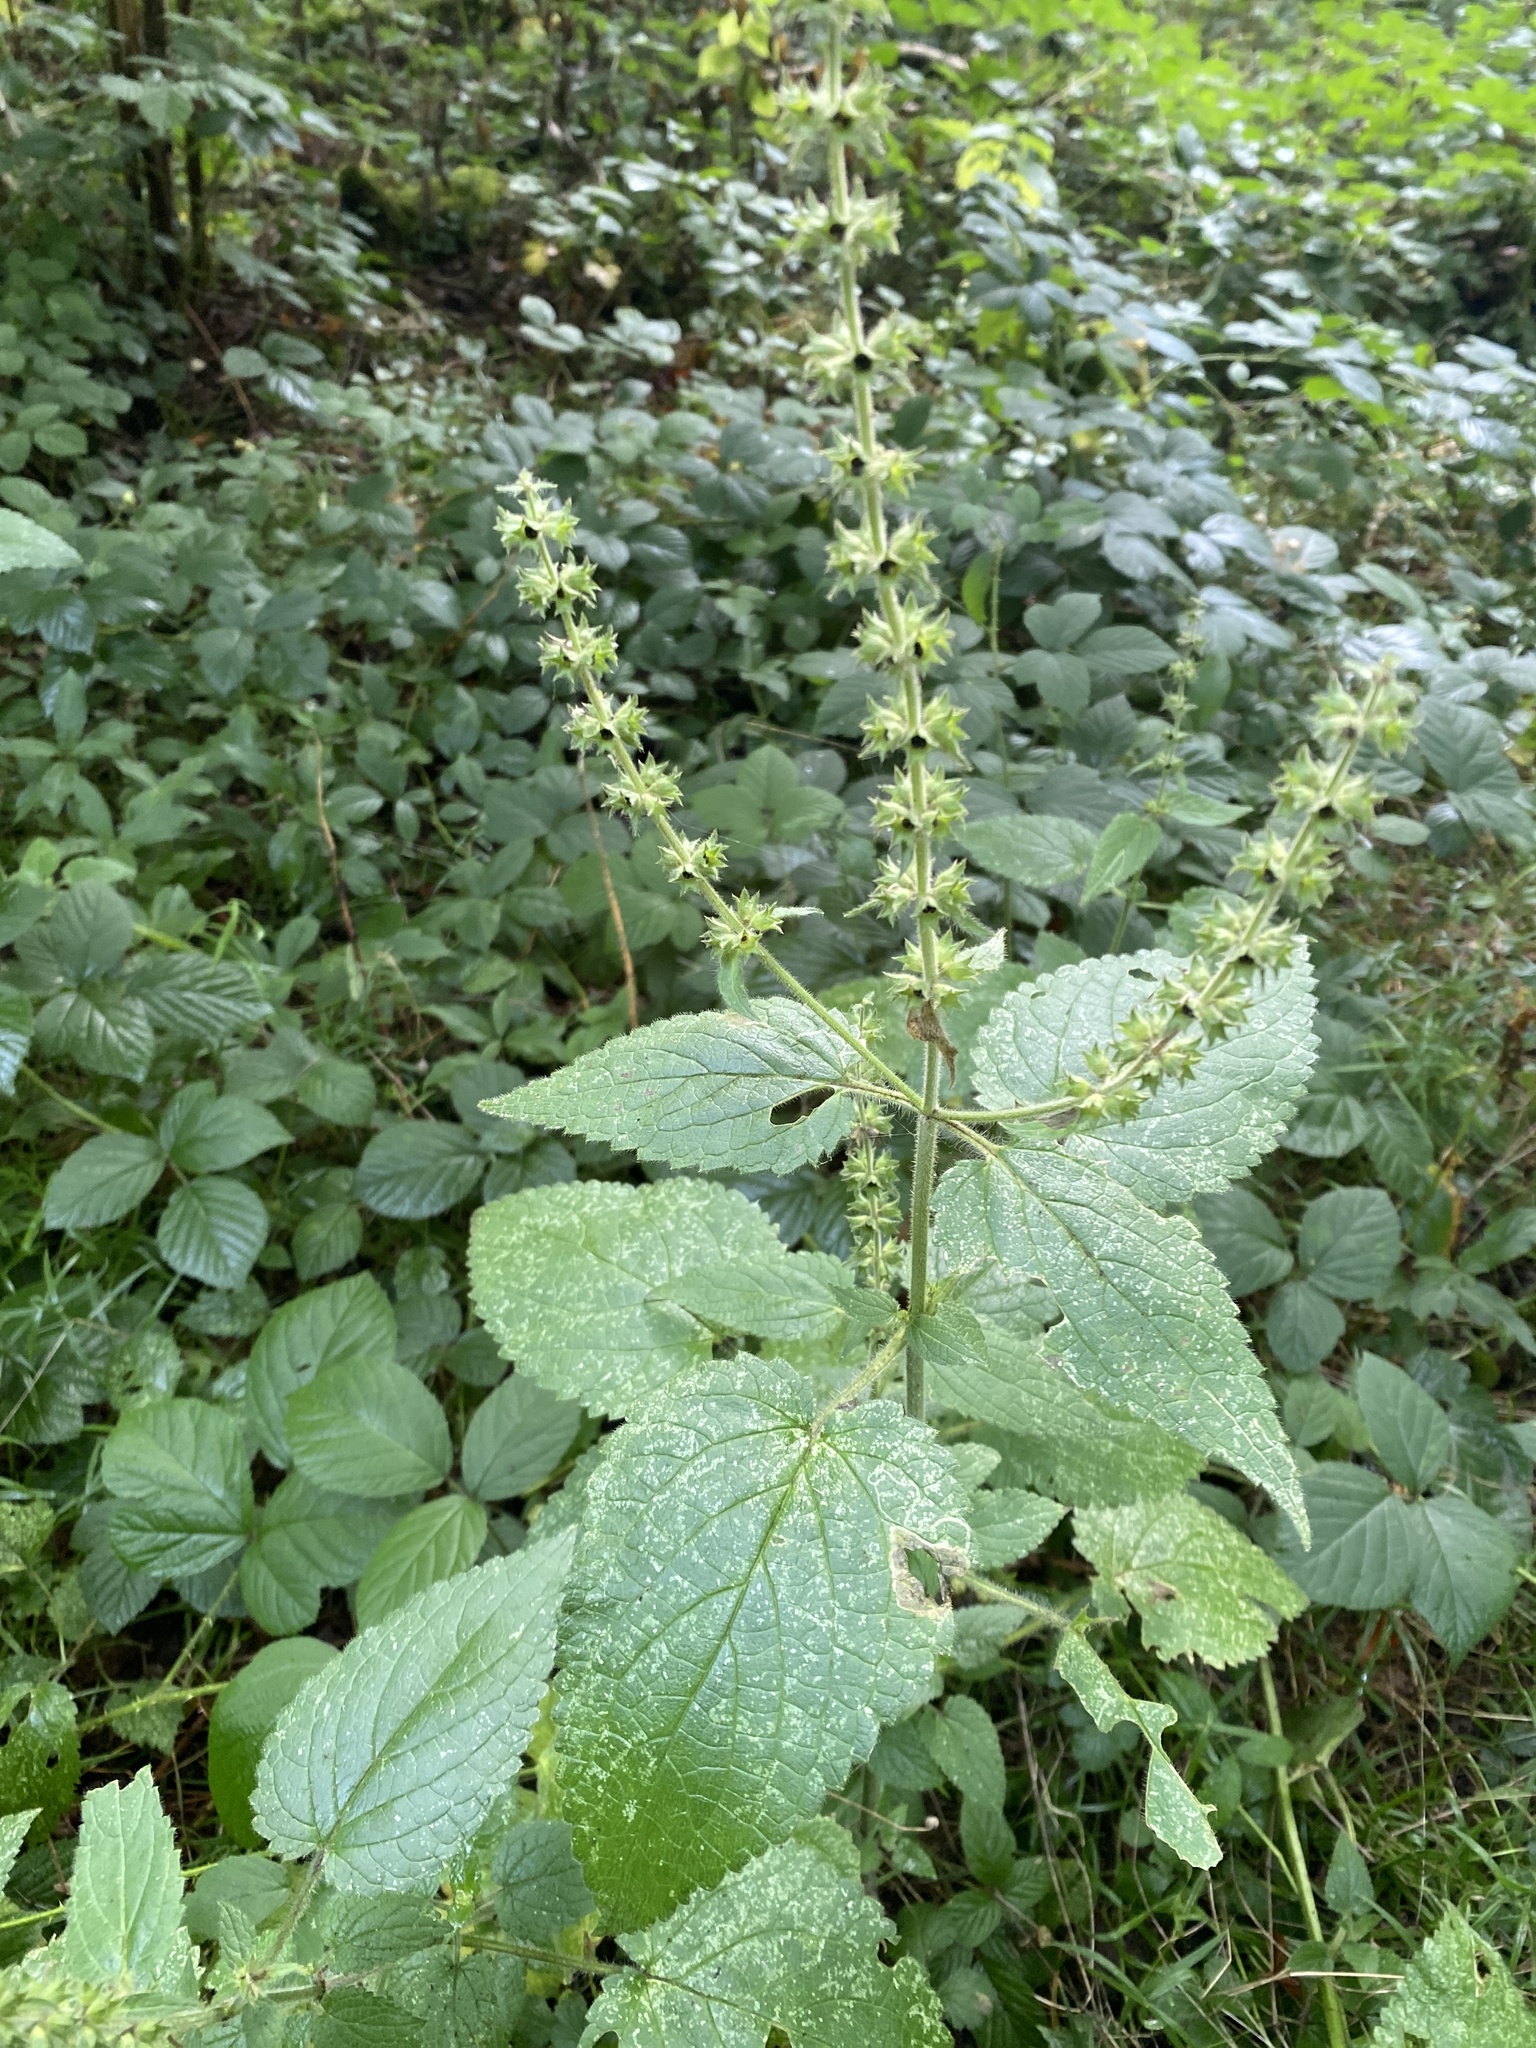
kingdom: Plantae
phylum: Tracheophyta
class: Magnoliopsida
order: Lamiales
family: Lamiaceae
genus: Stachys
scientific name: Stachys sylvatica
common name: Hedge woundwort
